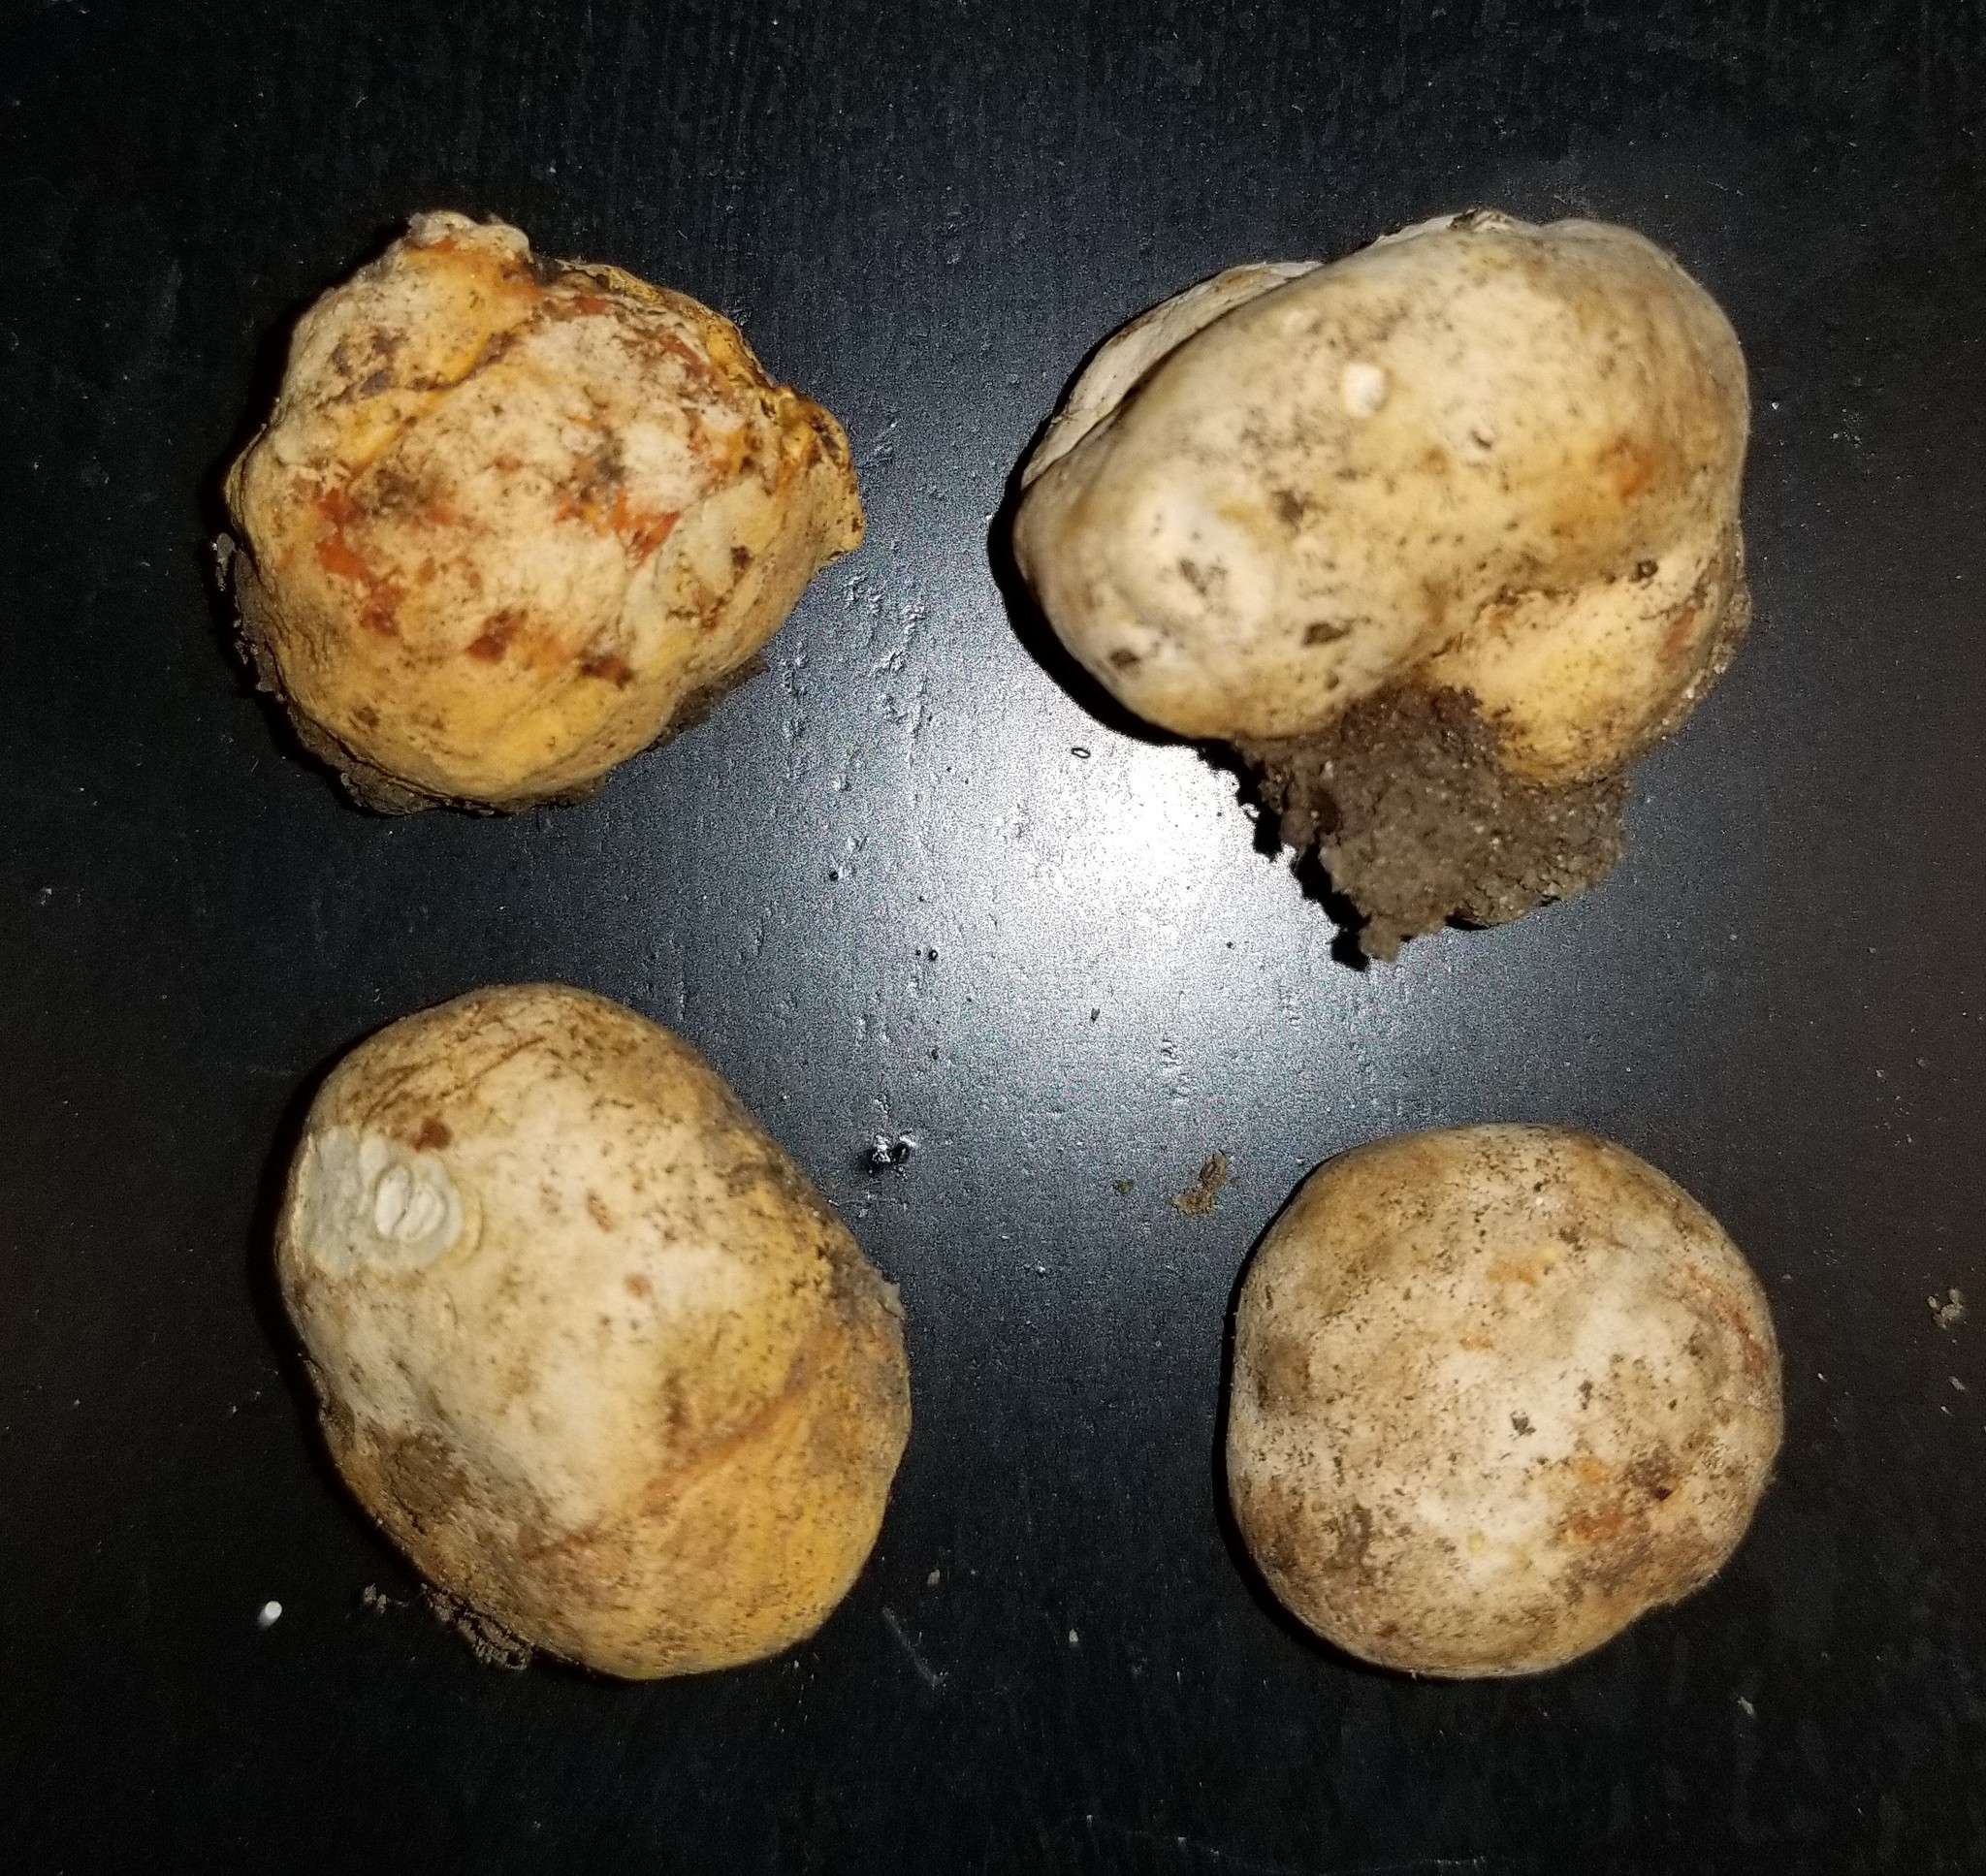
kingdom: Fungi
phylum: Ascomycota
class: Pezizomycetes
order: Pezizales
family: Pyronemataceae
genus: Densocarpa
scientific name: Densocarpa shanorii
